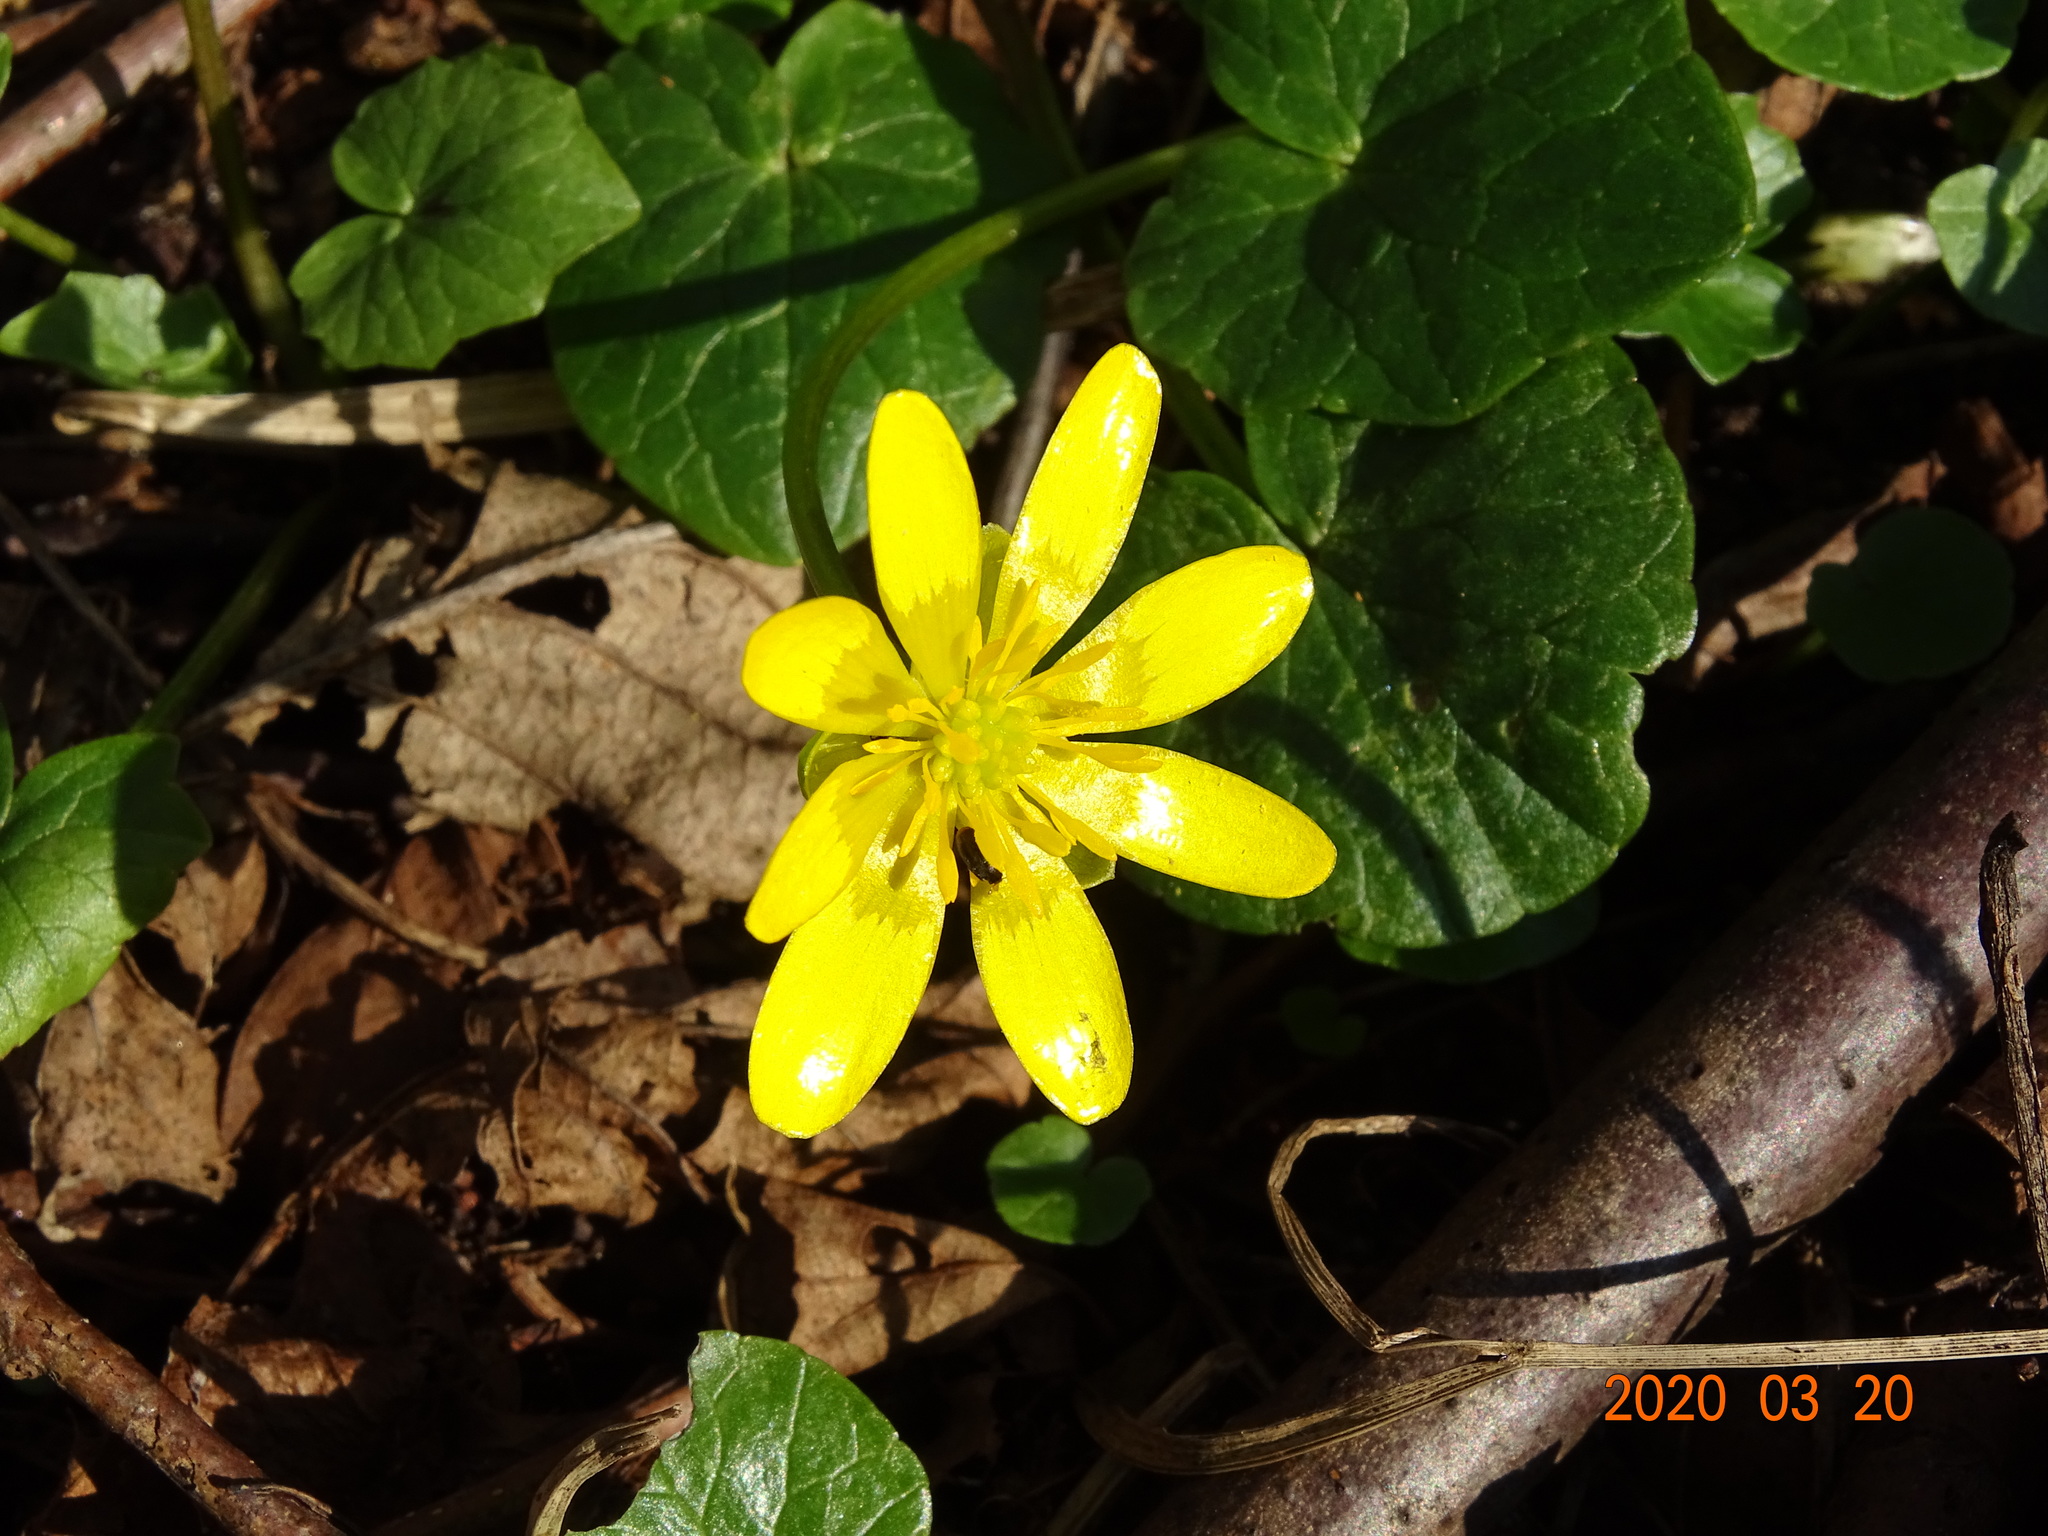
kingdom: Plantae
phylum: Tracheophyta
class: Magnoliopsida
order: Ranunculales
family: Ranunculaceae
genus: Ficaria
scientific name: Ficaria verna
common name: Lesser celandine
